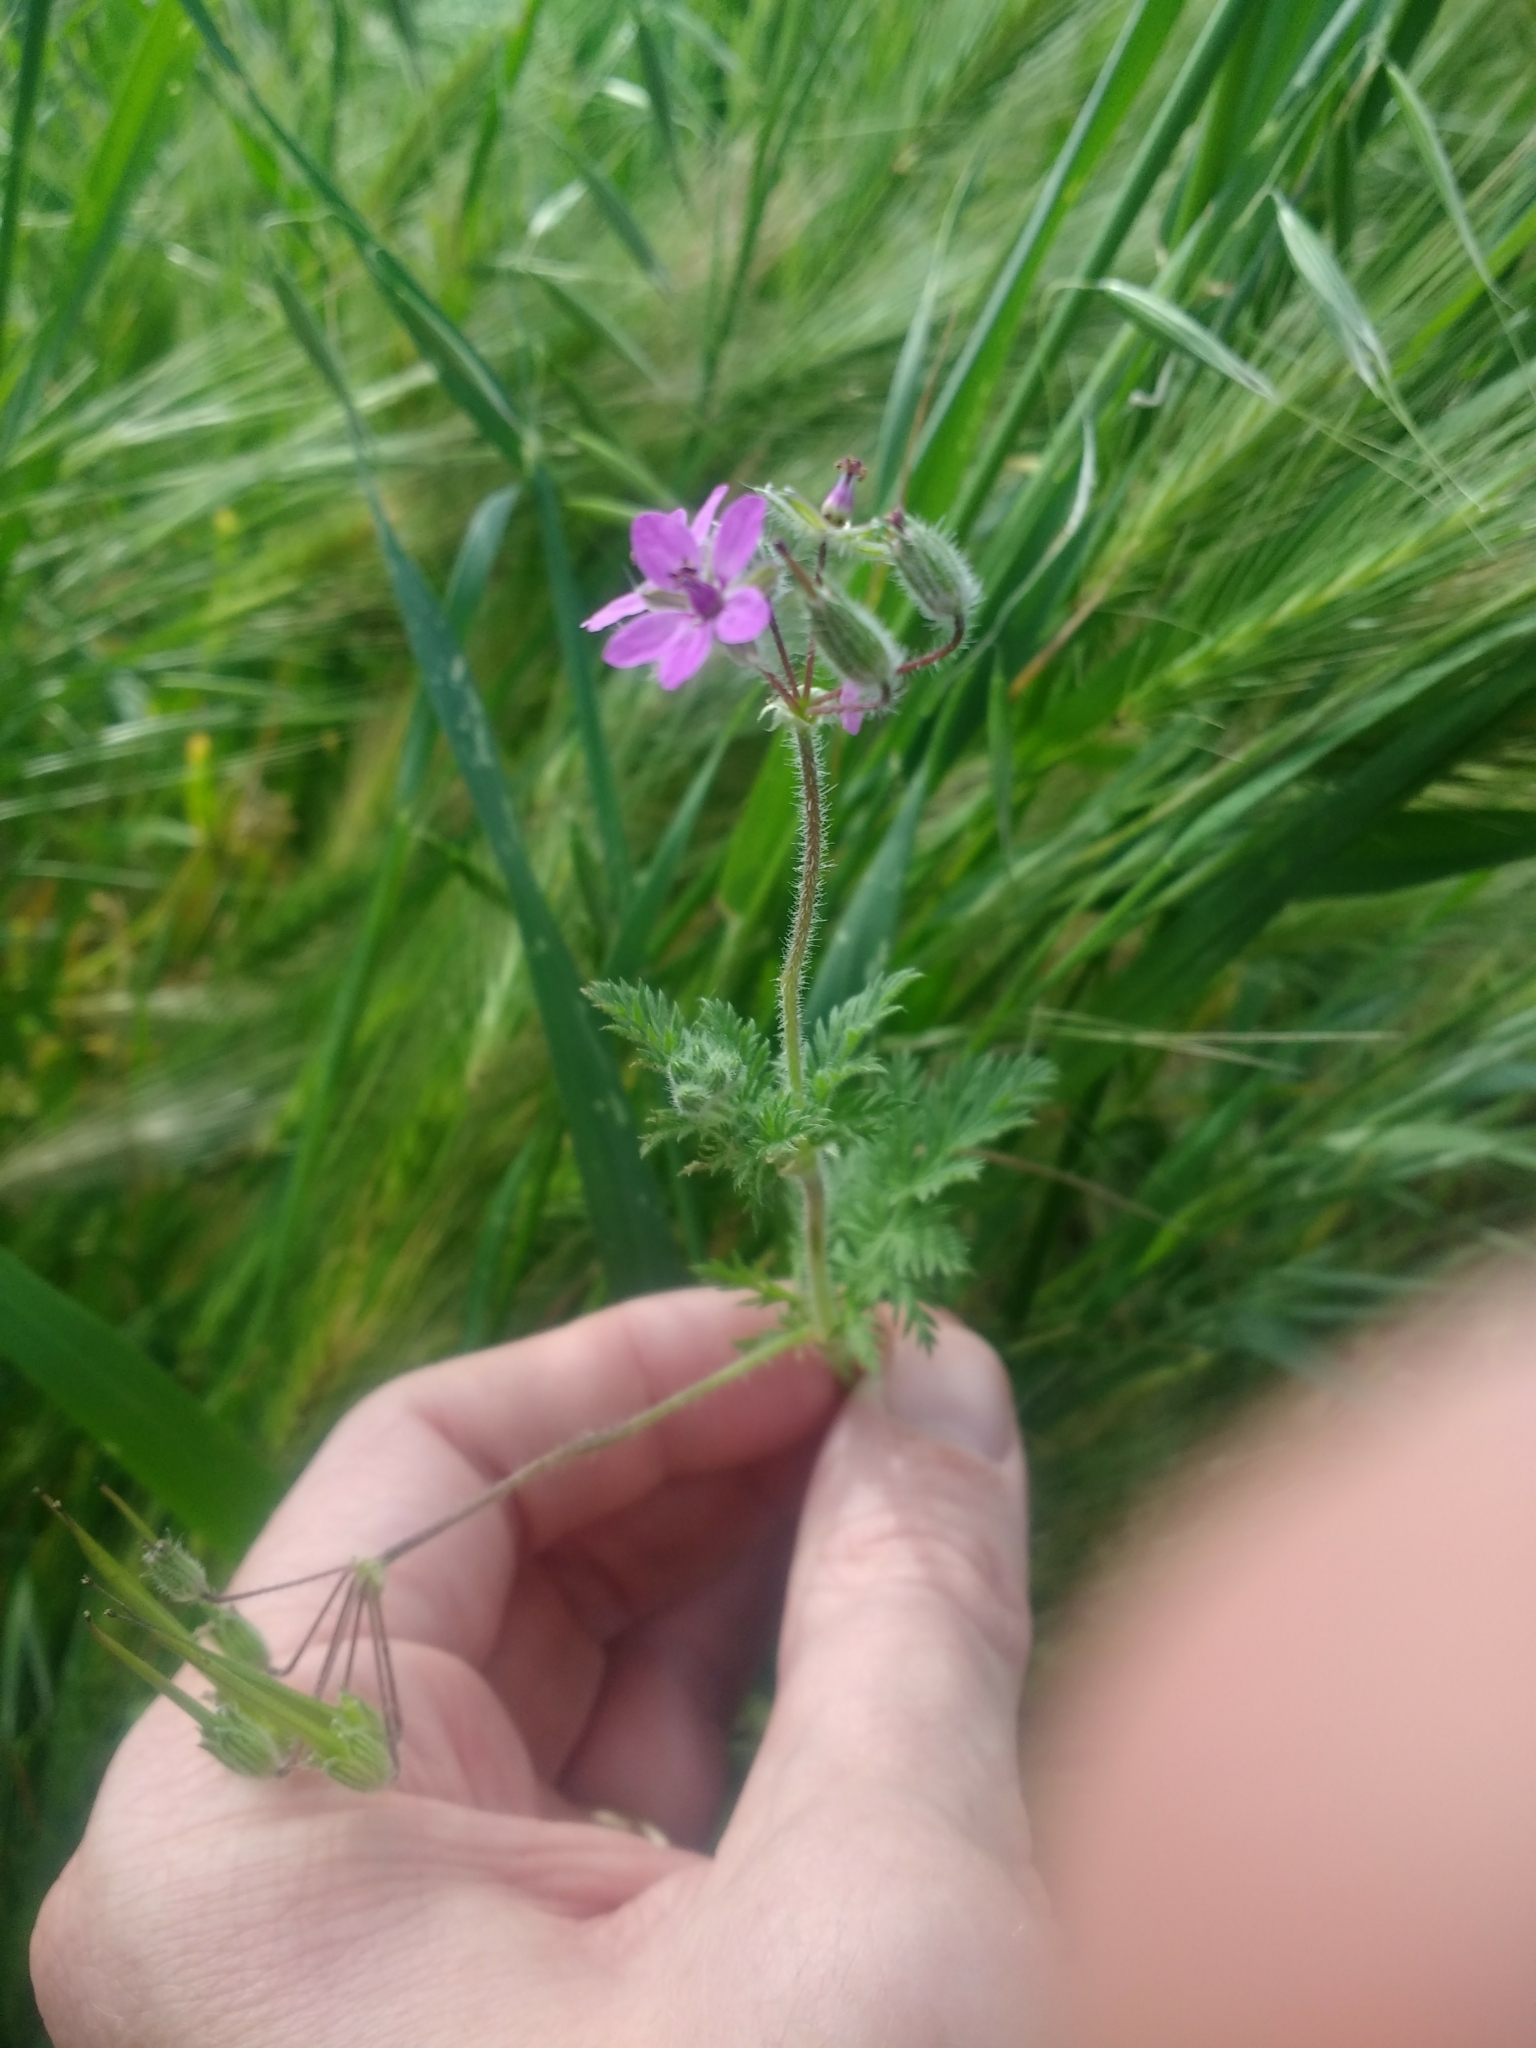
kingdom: Plantae
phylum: Tracheophyta
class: Magnoliopsida
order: Geraniales
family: Geraniaceae
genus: Erodium
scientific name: Erodium cicutarium
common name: Common stork's-bill
